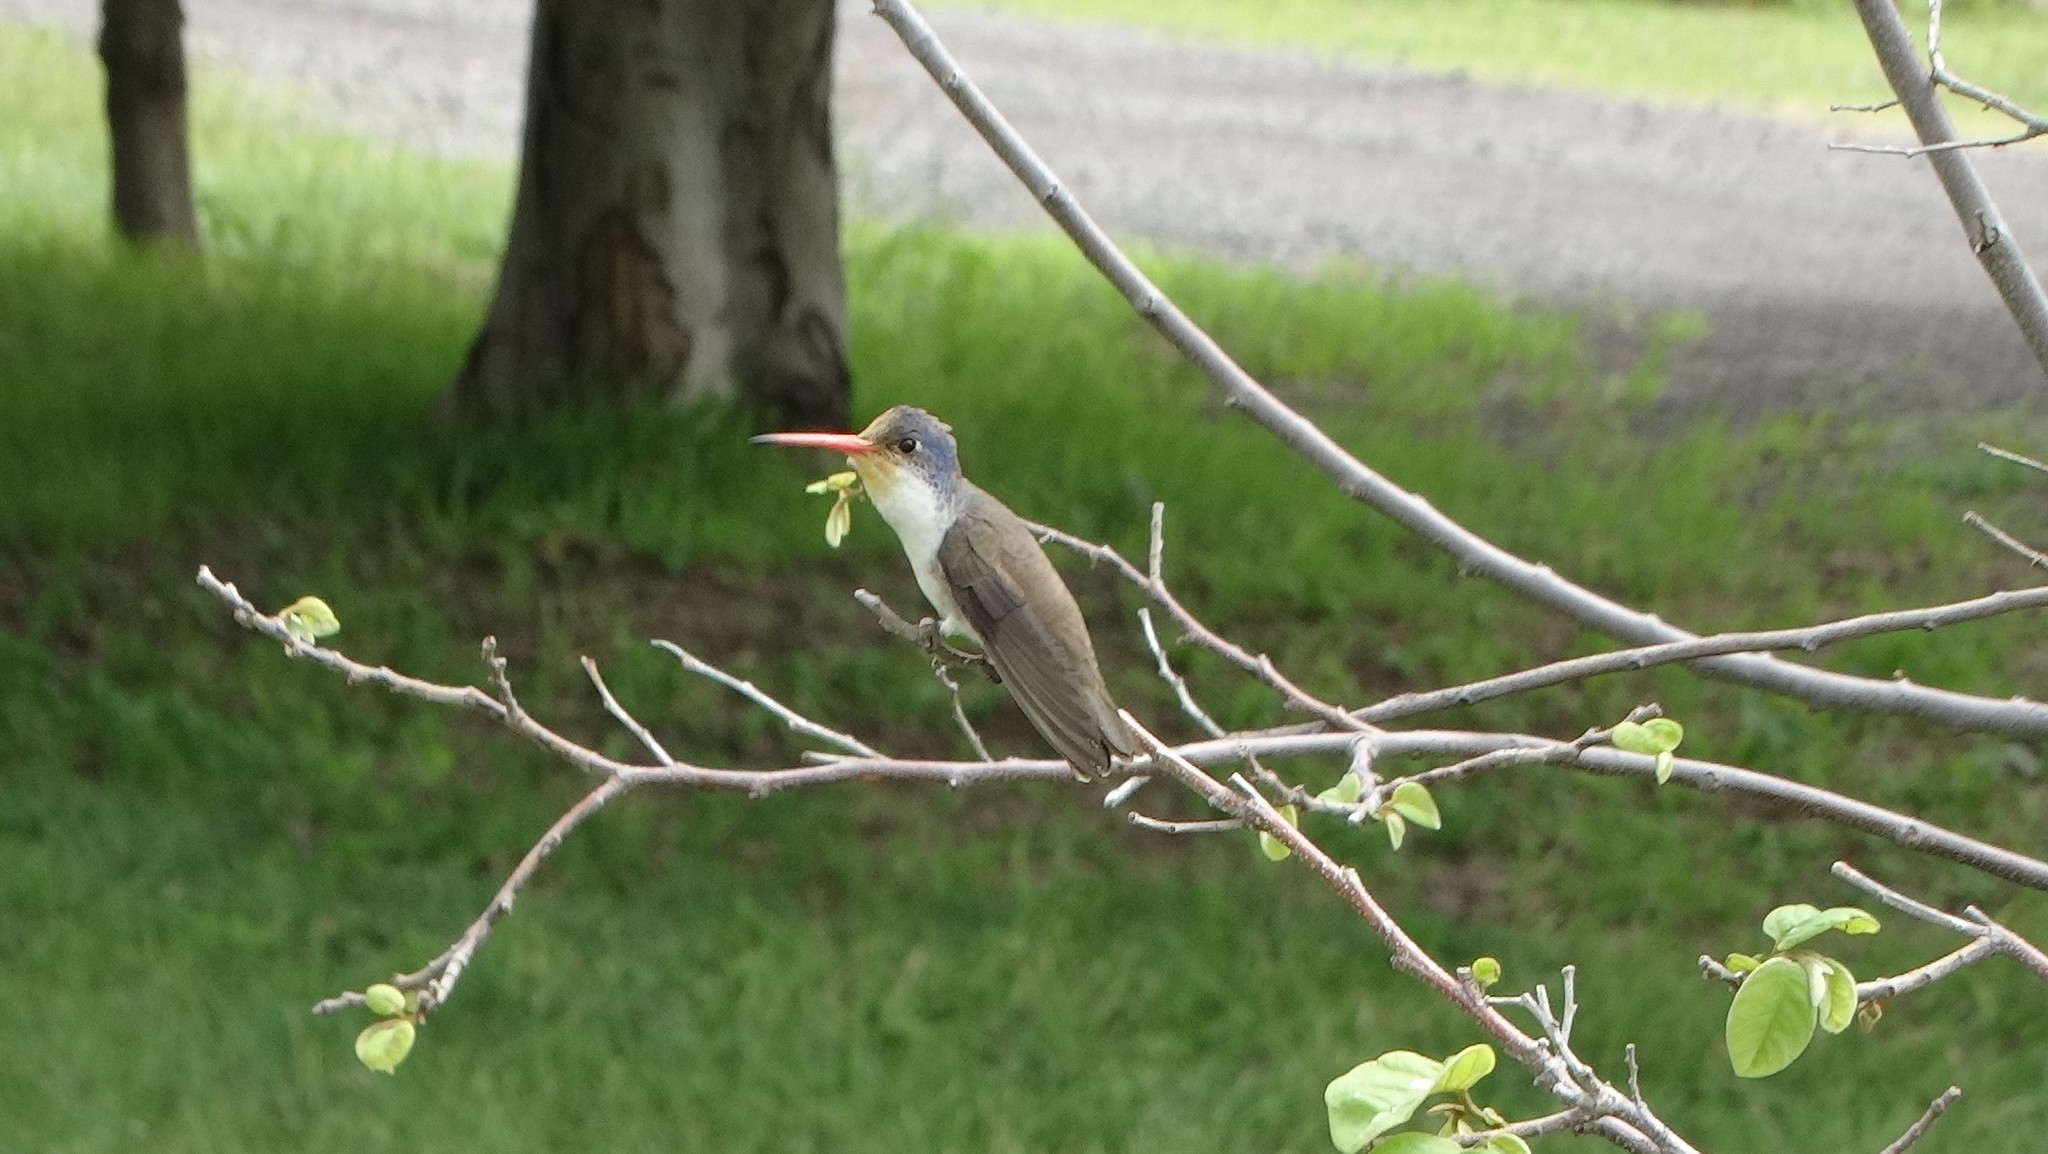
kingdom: Animalia
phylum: Chordata
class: Aves
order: Apodiformes
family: Trochilidae
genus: Leucolia
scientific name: Leucolia violiceps
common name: Violet-crowned hummingbird
